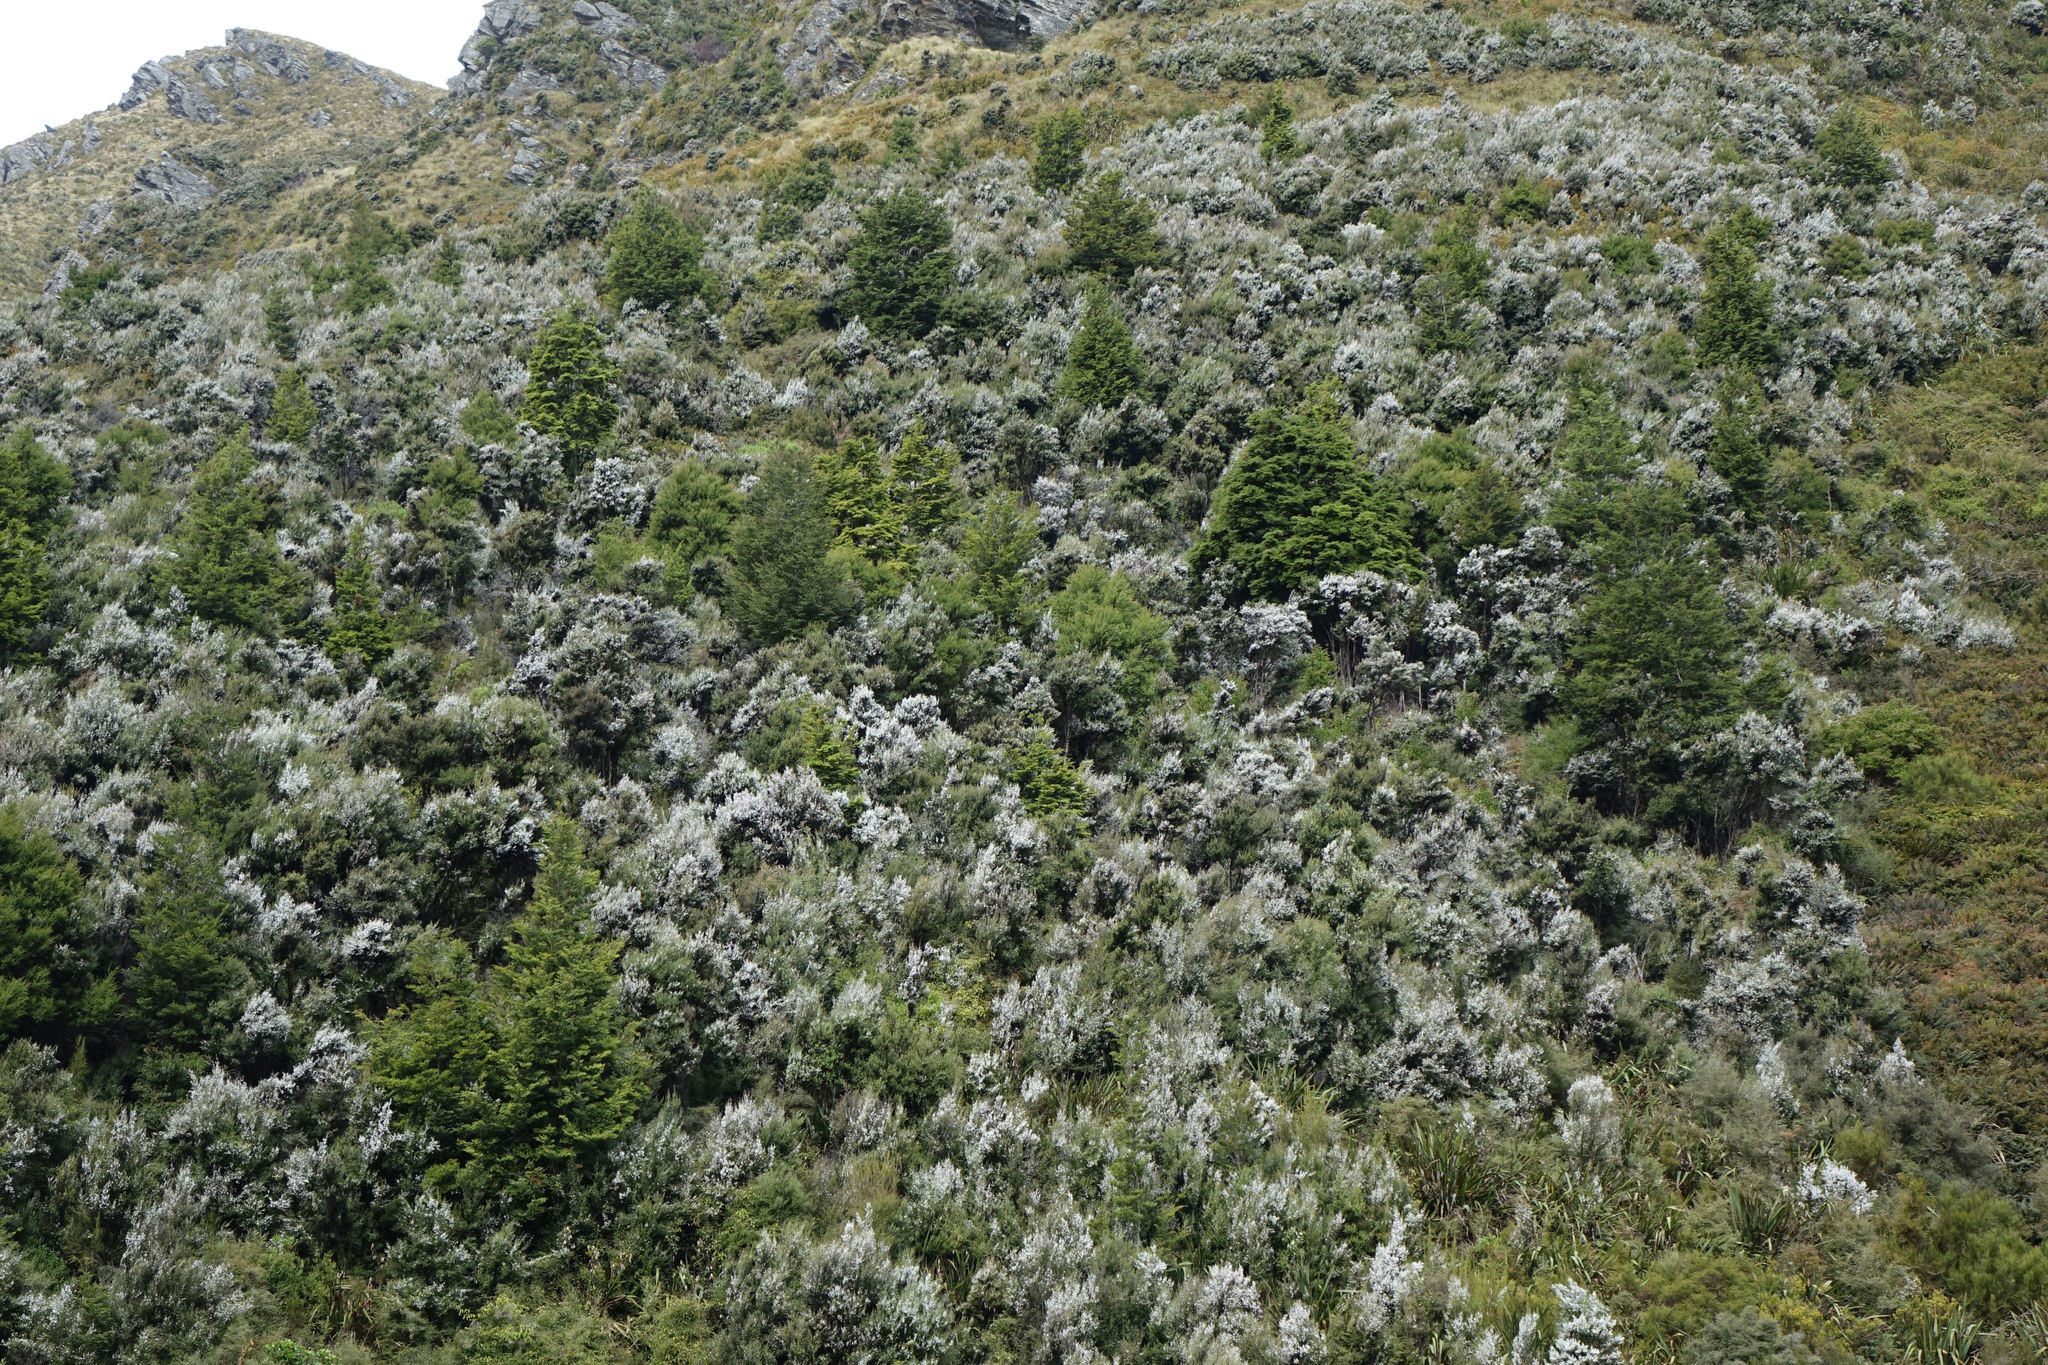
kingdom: Plantae
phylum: Tracheophyta
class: Magnoliopsida
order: Myrtales
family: Myrtaceae
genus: Leptospermum
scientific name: Leptospermum scoparium
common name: Broom tea-tree
